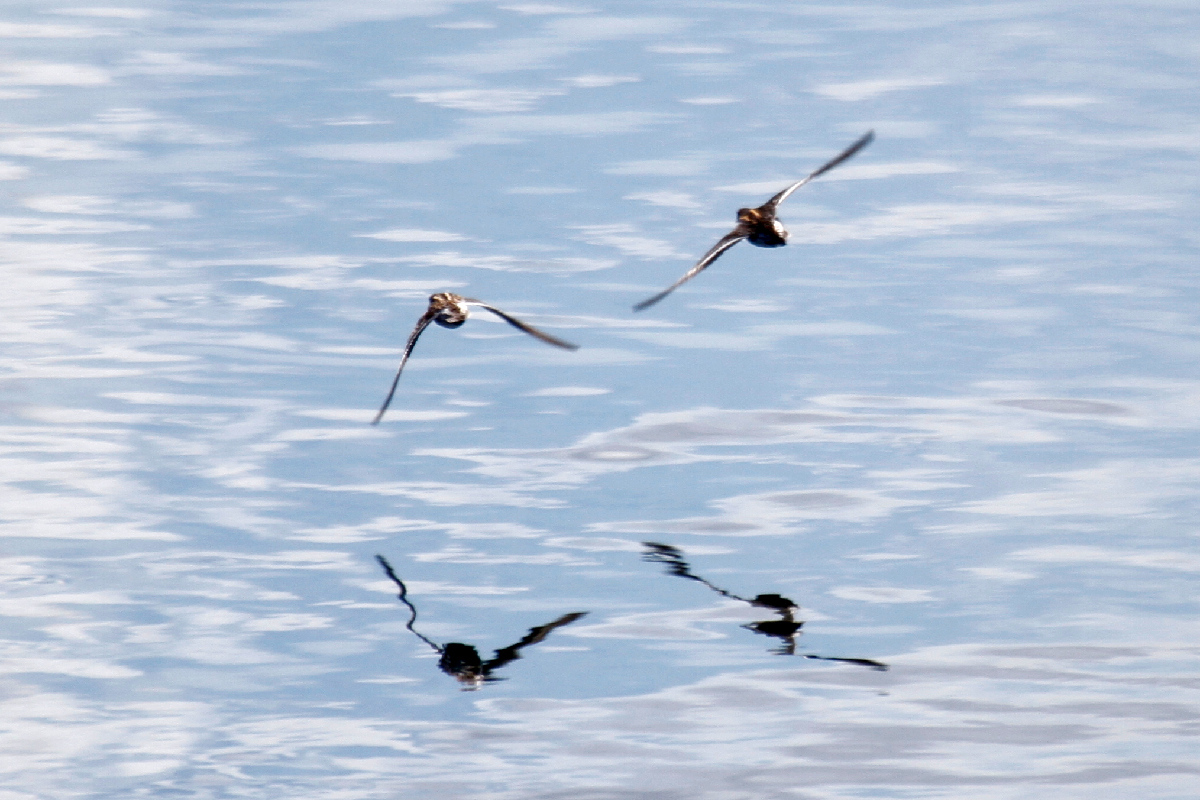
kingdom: Animalia
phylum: Chordata
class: Aves
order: Charadriiformes
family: Scolopacidae
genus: Phalaropus
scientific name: Phalaropus lobatus
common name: Red-necked phalarope
